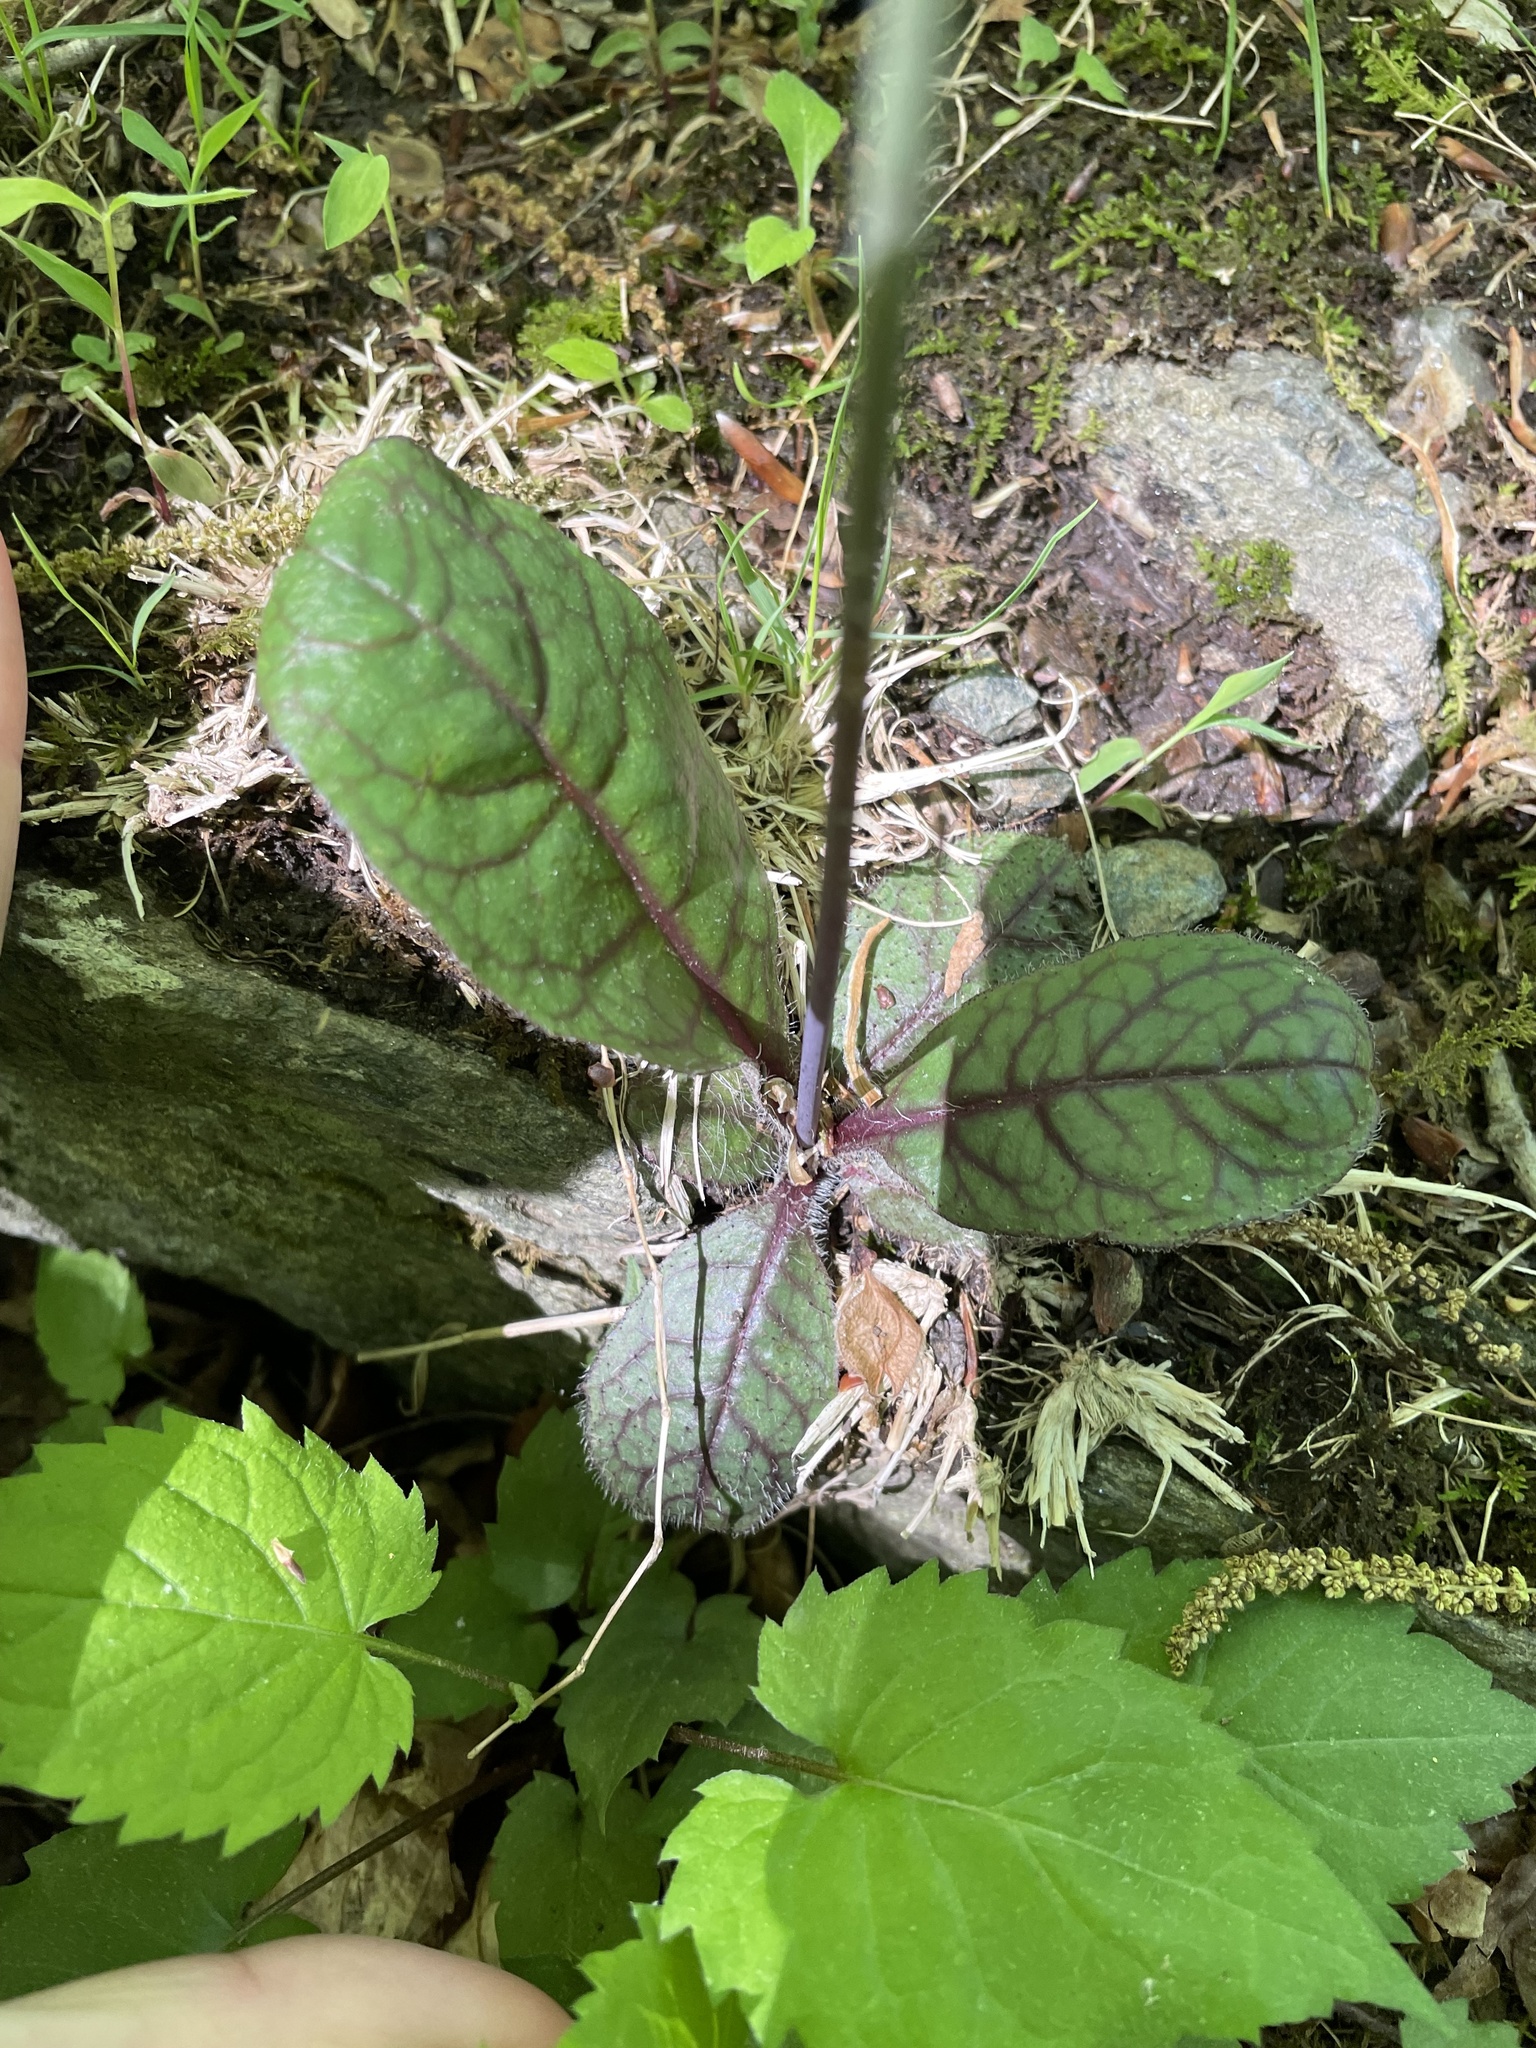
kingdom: Plantae
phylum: Tracheophyta
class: Magnoliopsida
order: Asterales
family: Asteraceae
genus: Hieracium
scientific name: Hieracium venosum
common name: Rattlesnake hawkweed
